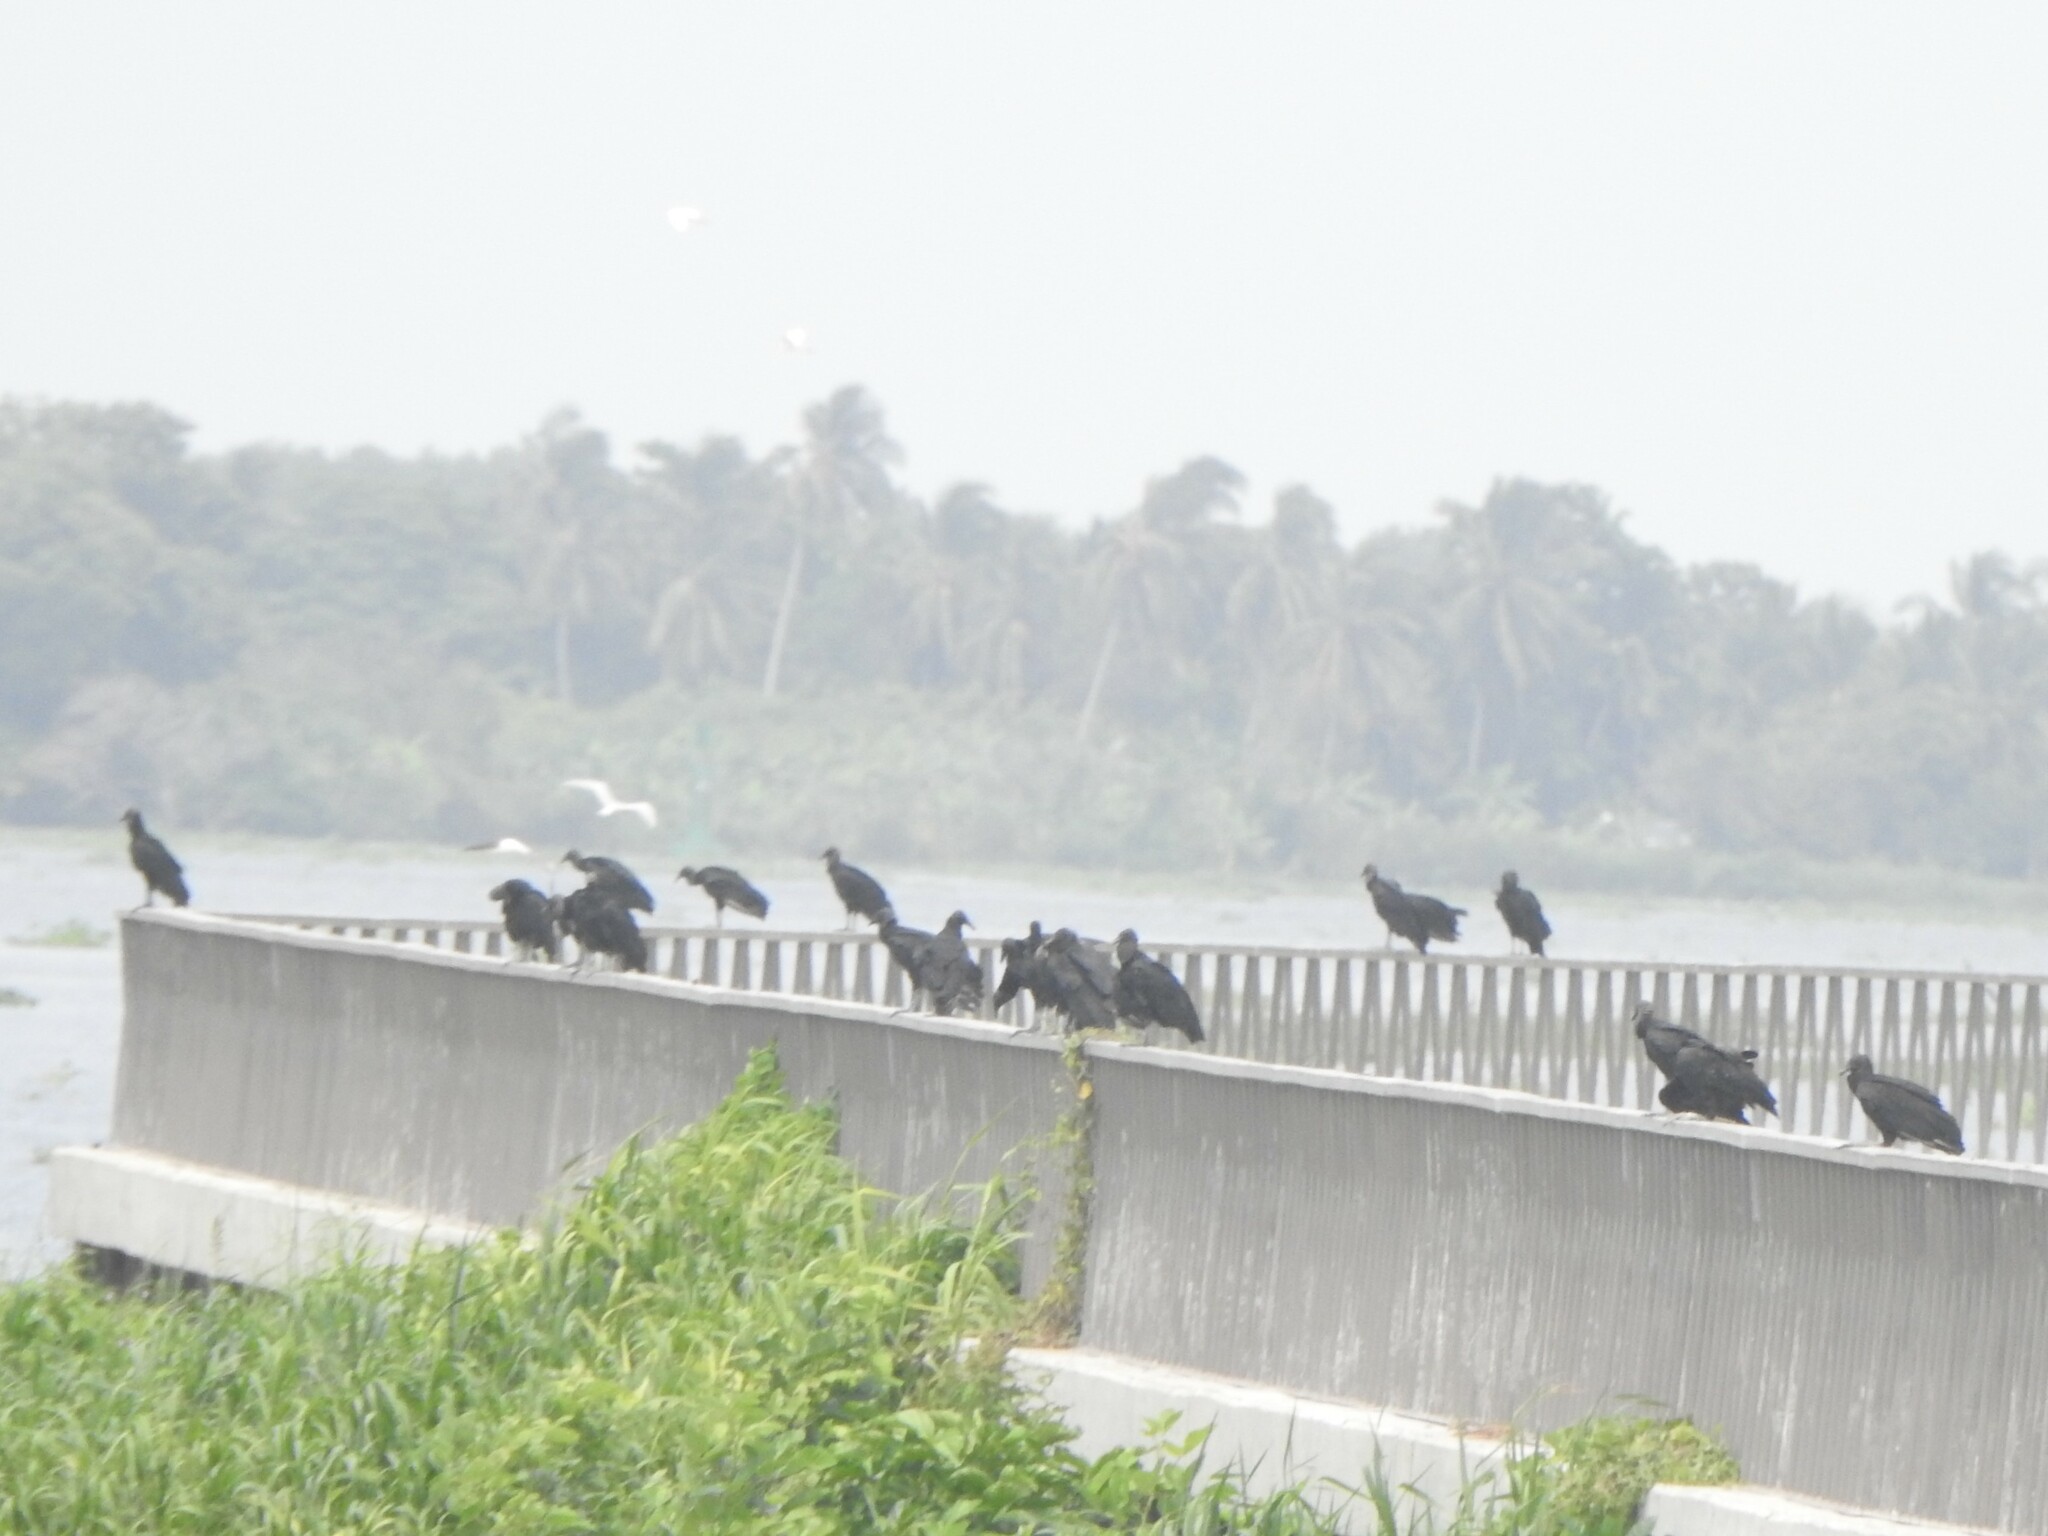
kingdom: Animalia
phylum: Chordata
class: Aves
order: Accipitriformes
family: Cathartidae
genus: Coragyps
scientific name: Coragyps atratus
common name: Black vulture
